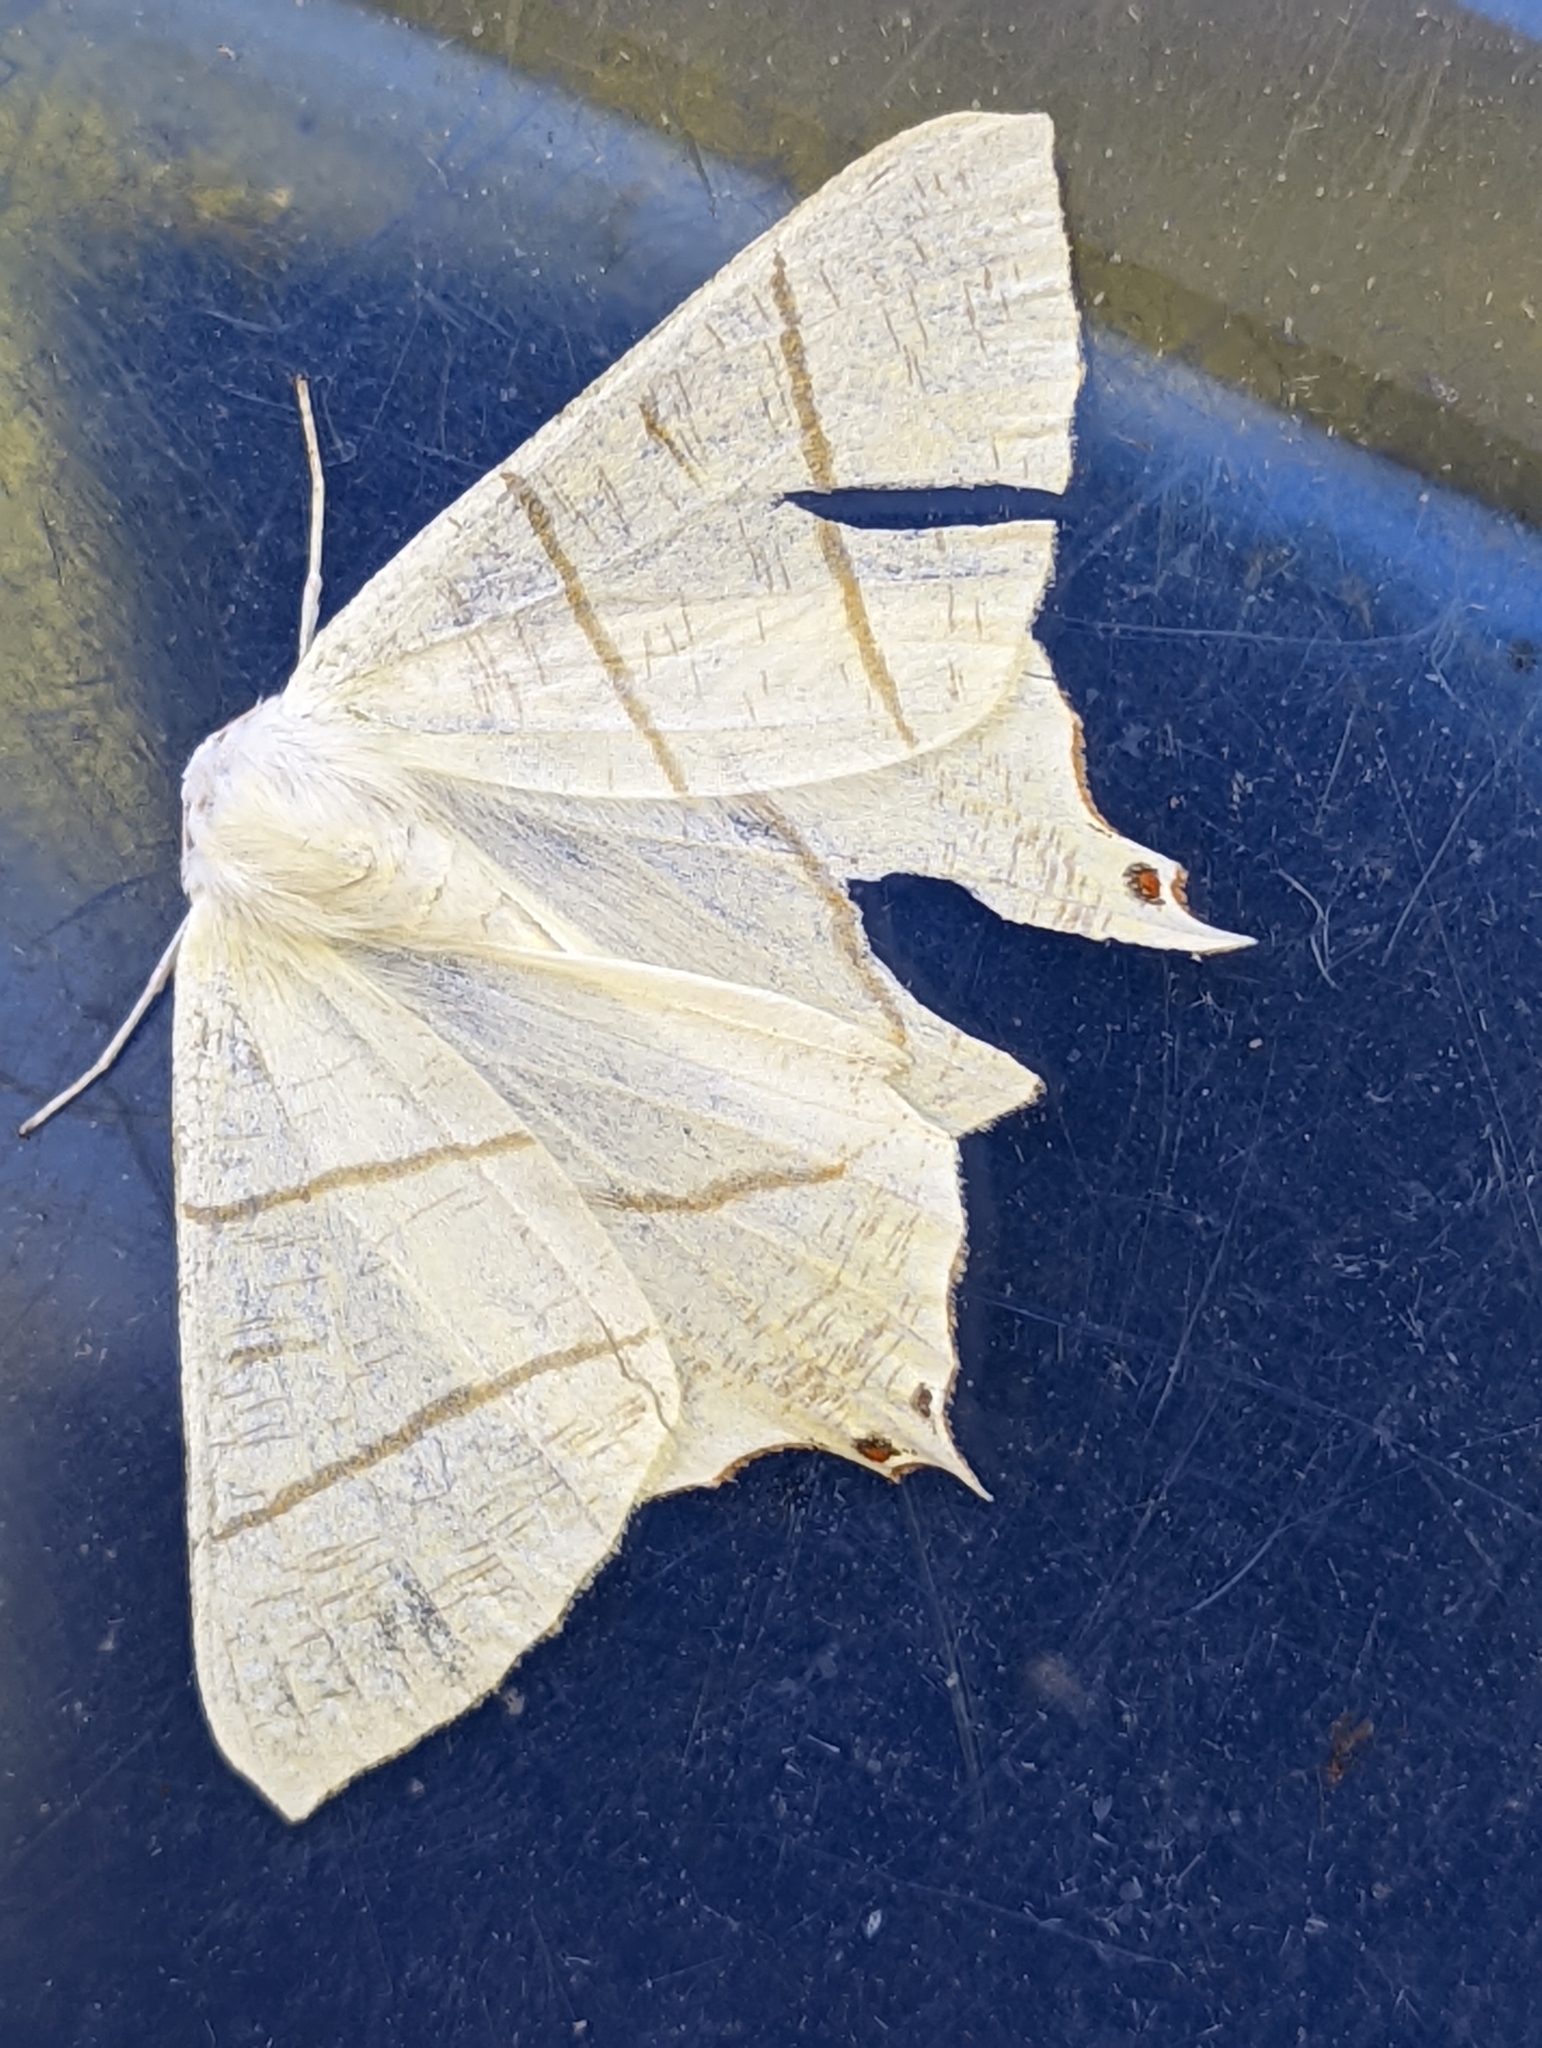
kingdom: Animalia
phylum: Arthropoda
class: Insecta
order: Lepidoptera
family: Geometridae
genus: Ourapteryx
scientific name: Ourapteryx sambucaria
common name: Swallow-tailed moth
